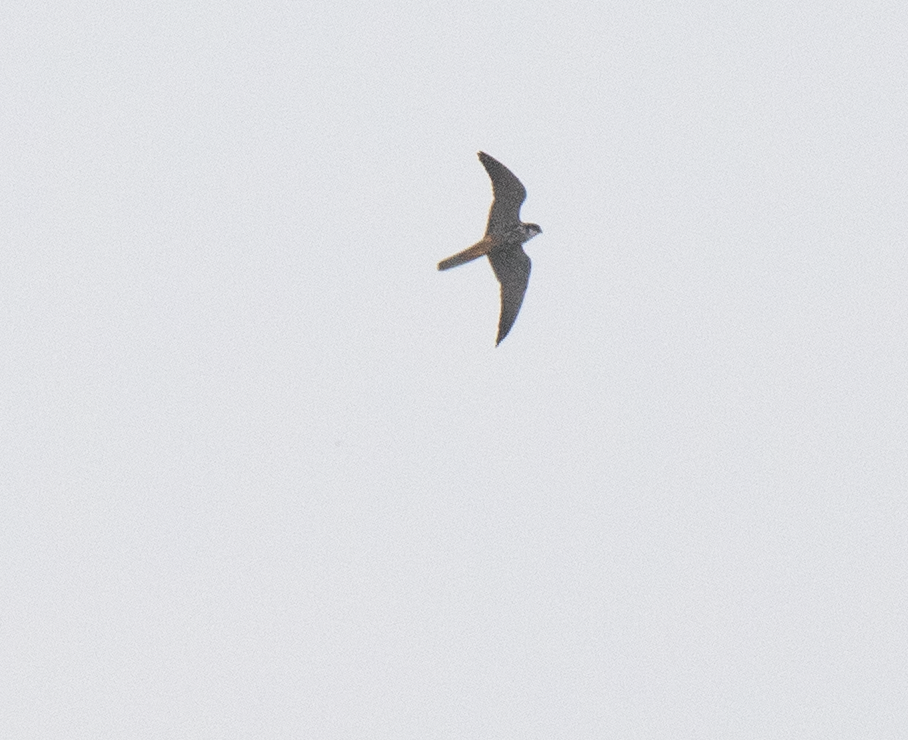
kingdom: Animalia
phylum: Chordata
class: Aves
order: Falconiformes
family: Falconidae
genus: Falco
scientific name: Falco subbuteo
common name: Eurasian hobby
